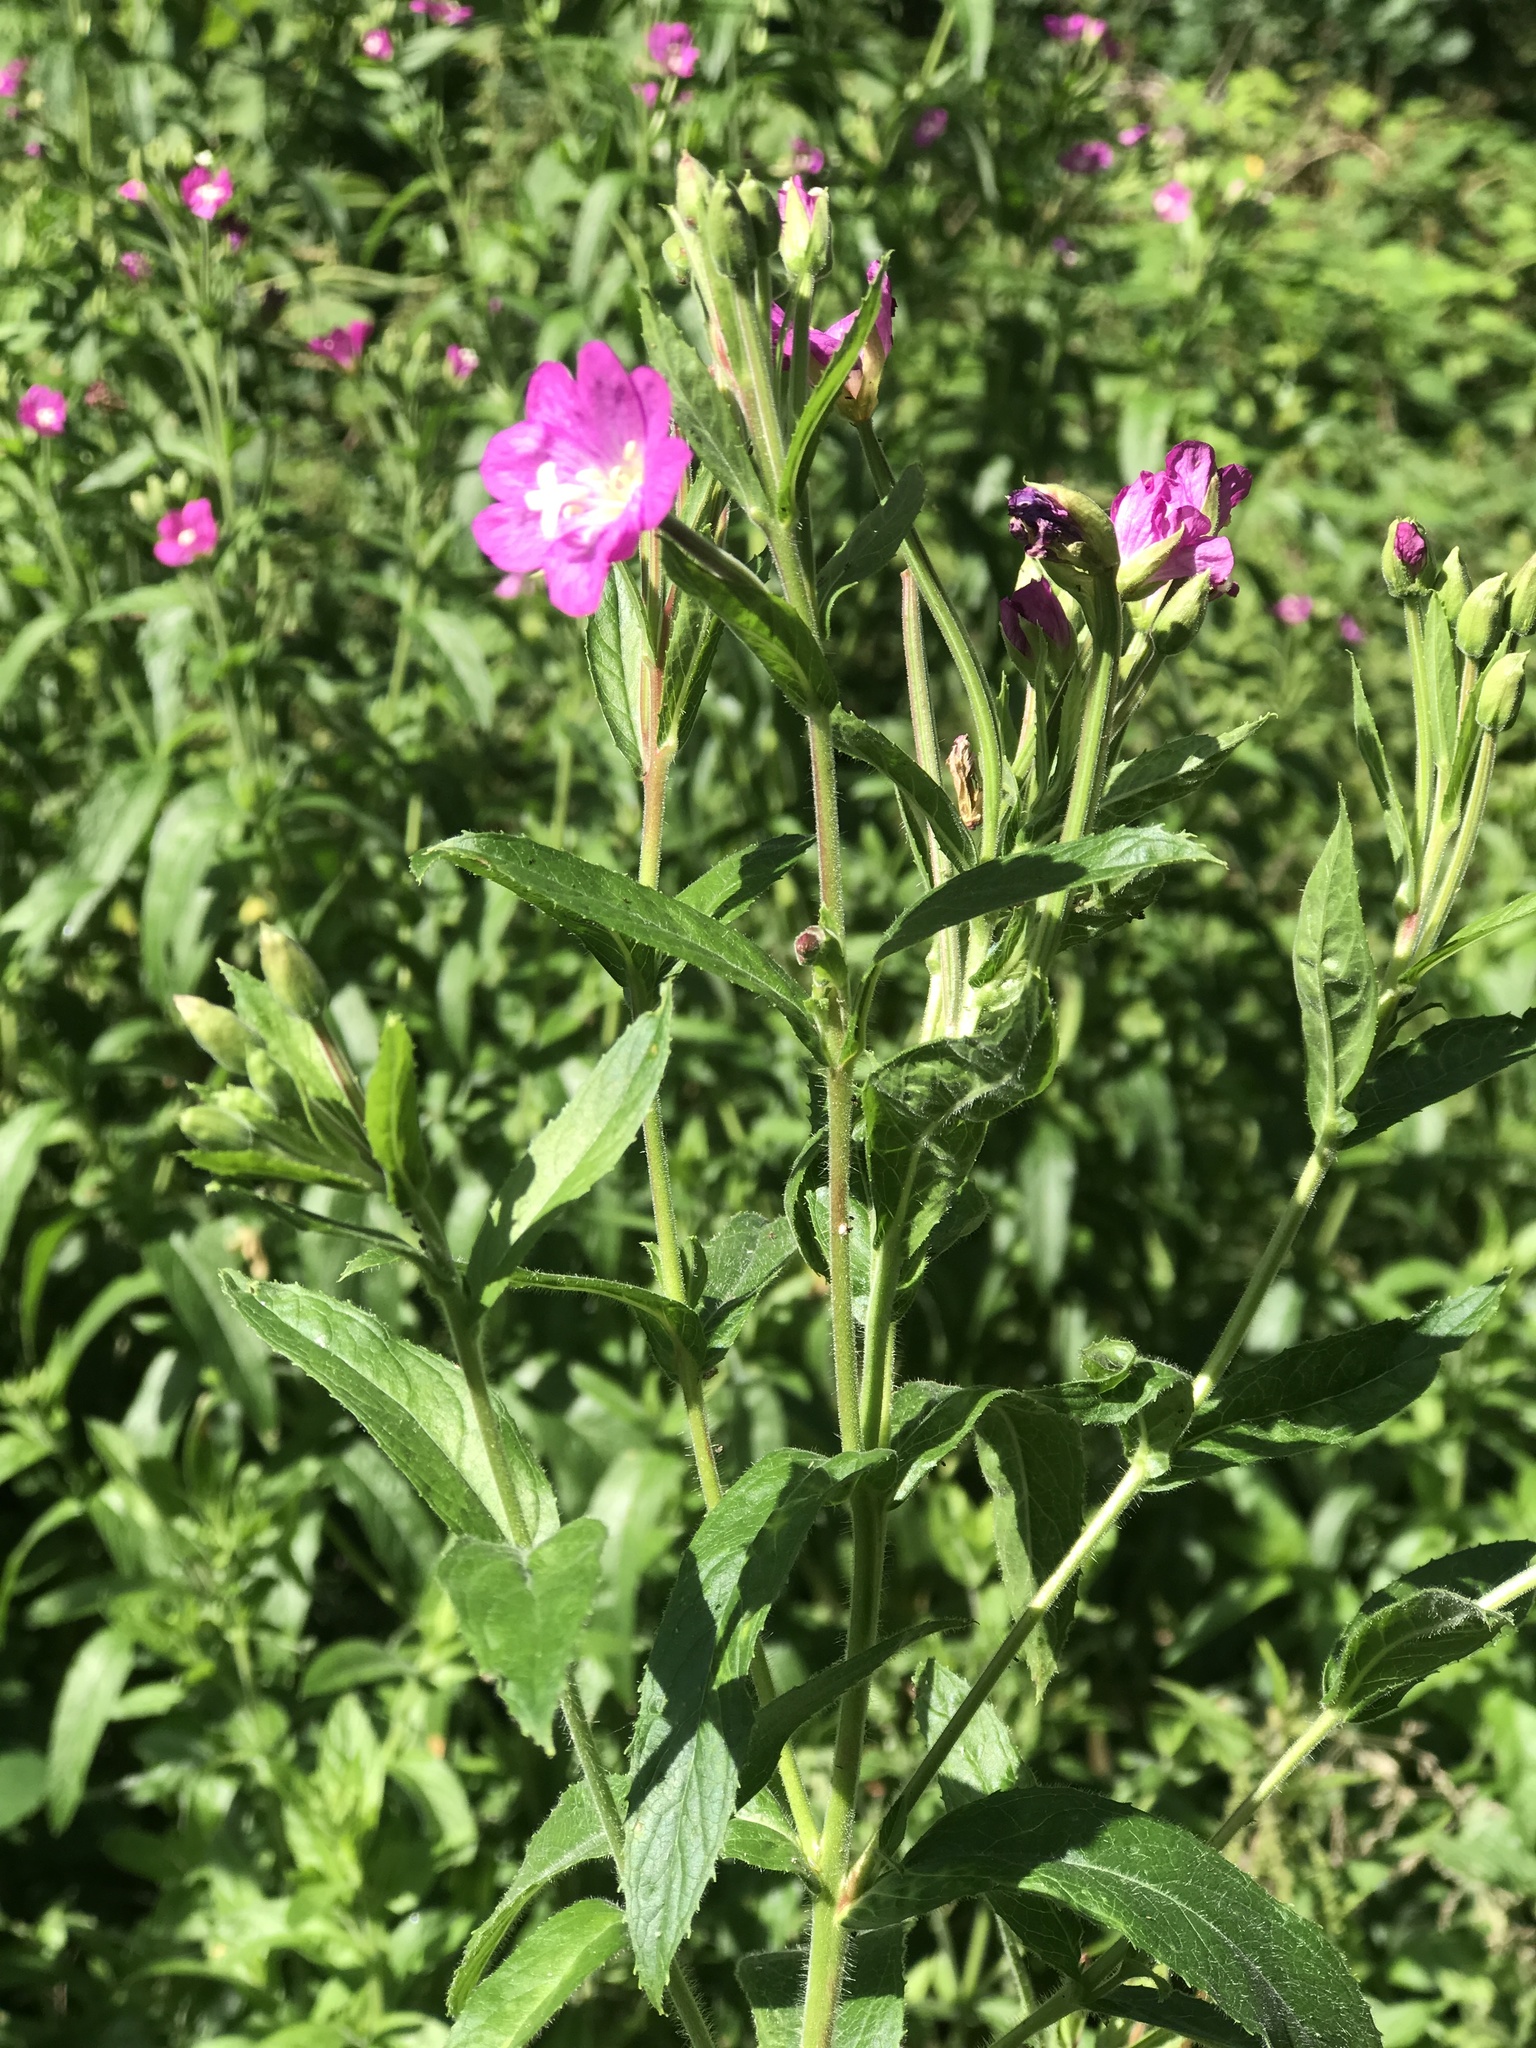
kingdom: Plantae
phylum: Tracheophyta
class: Magnoliopsida
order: Myrtales
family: Onagraceae
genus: Epilobium
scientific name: Epilobium hirsutum
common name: Great willowherb
